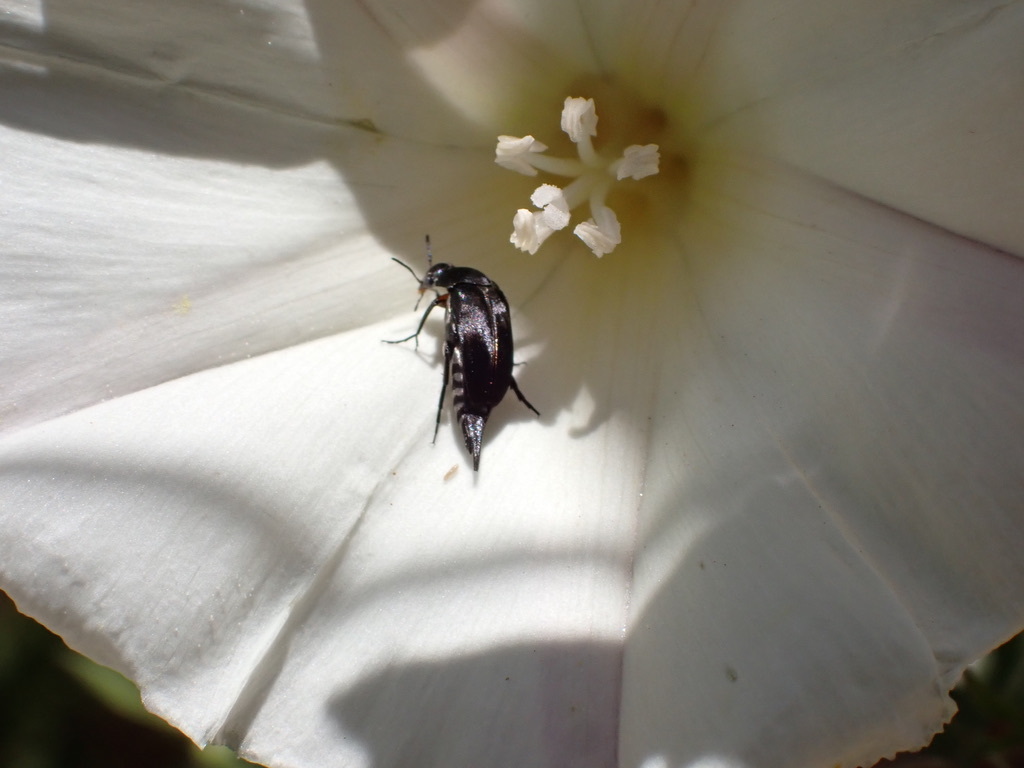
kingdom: Animalia
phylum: Arthropoda
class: Insecta
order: Coleoptera
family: Mordellidae
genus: Mordella
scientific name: Mordella hubbsi
